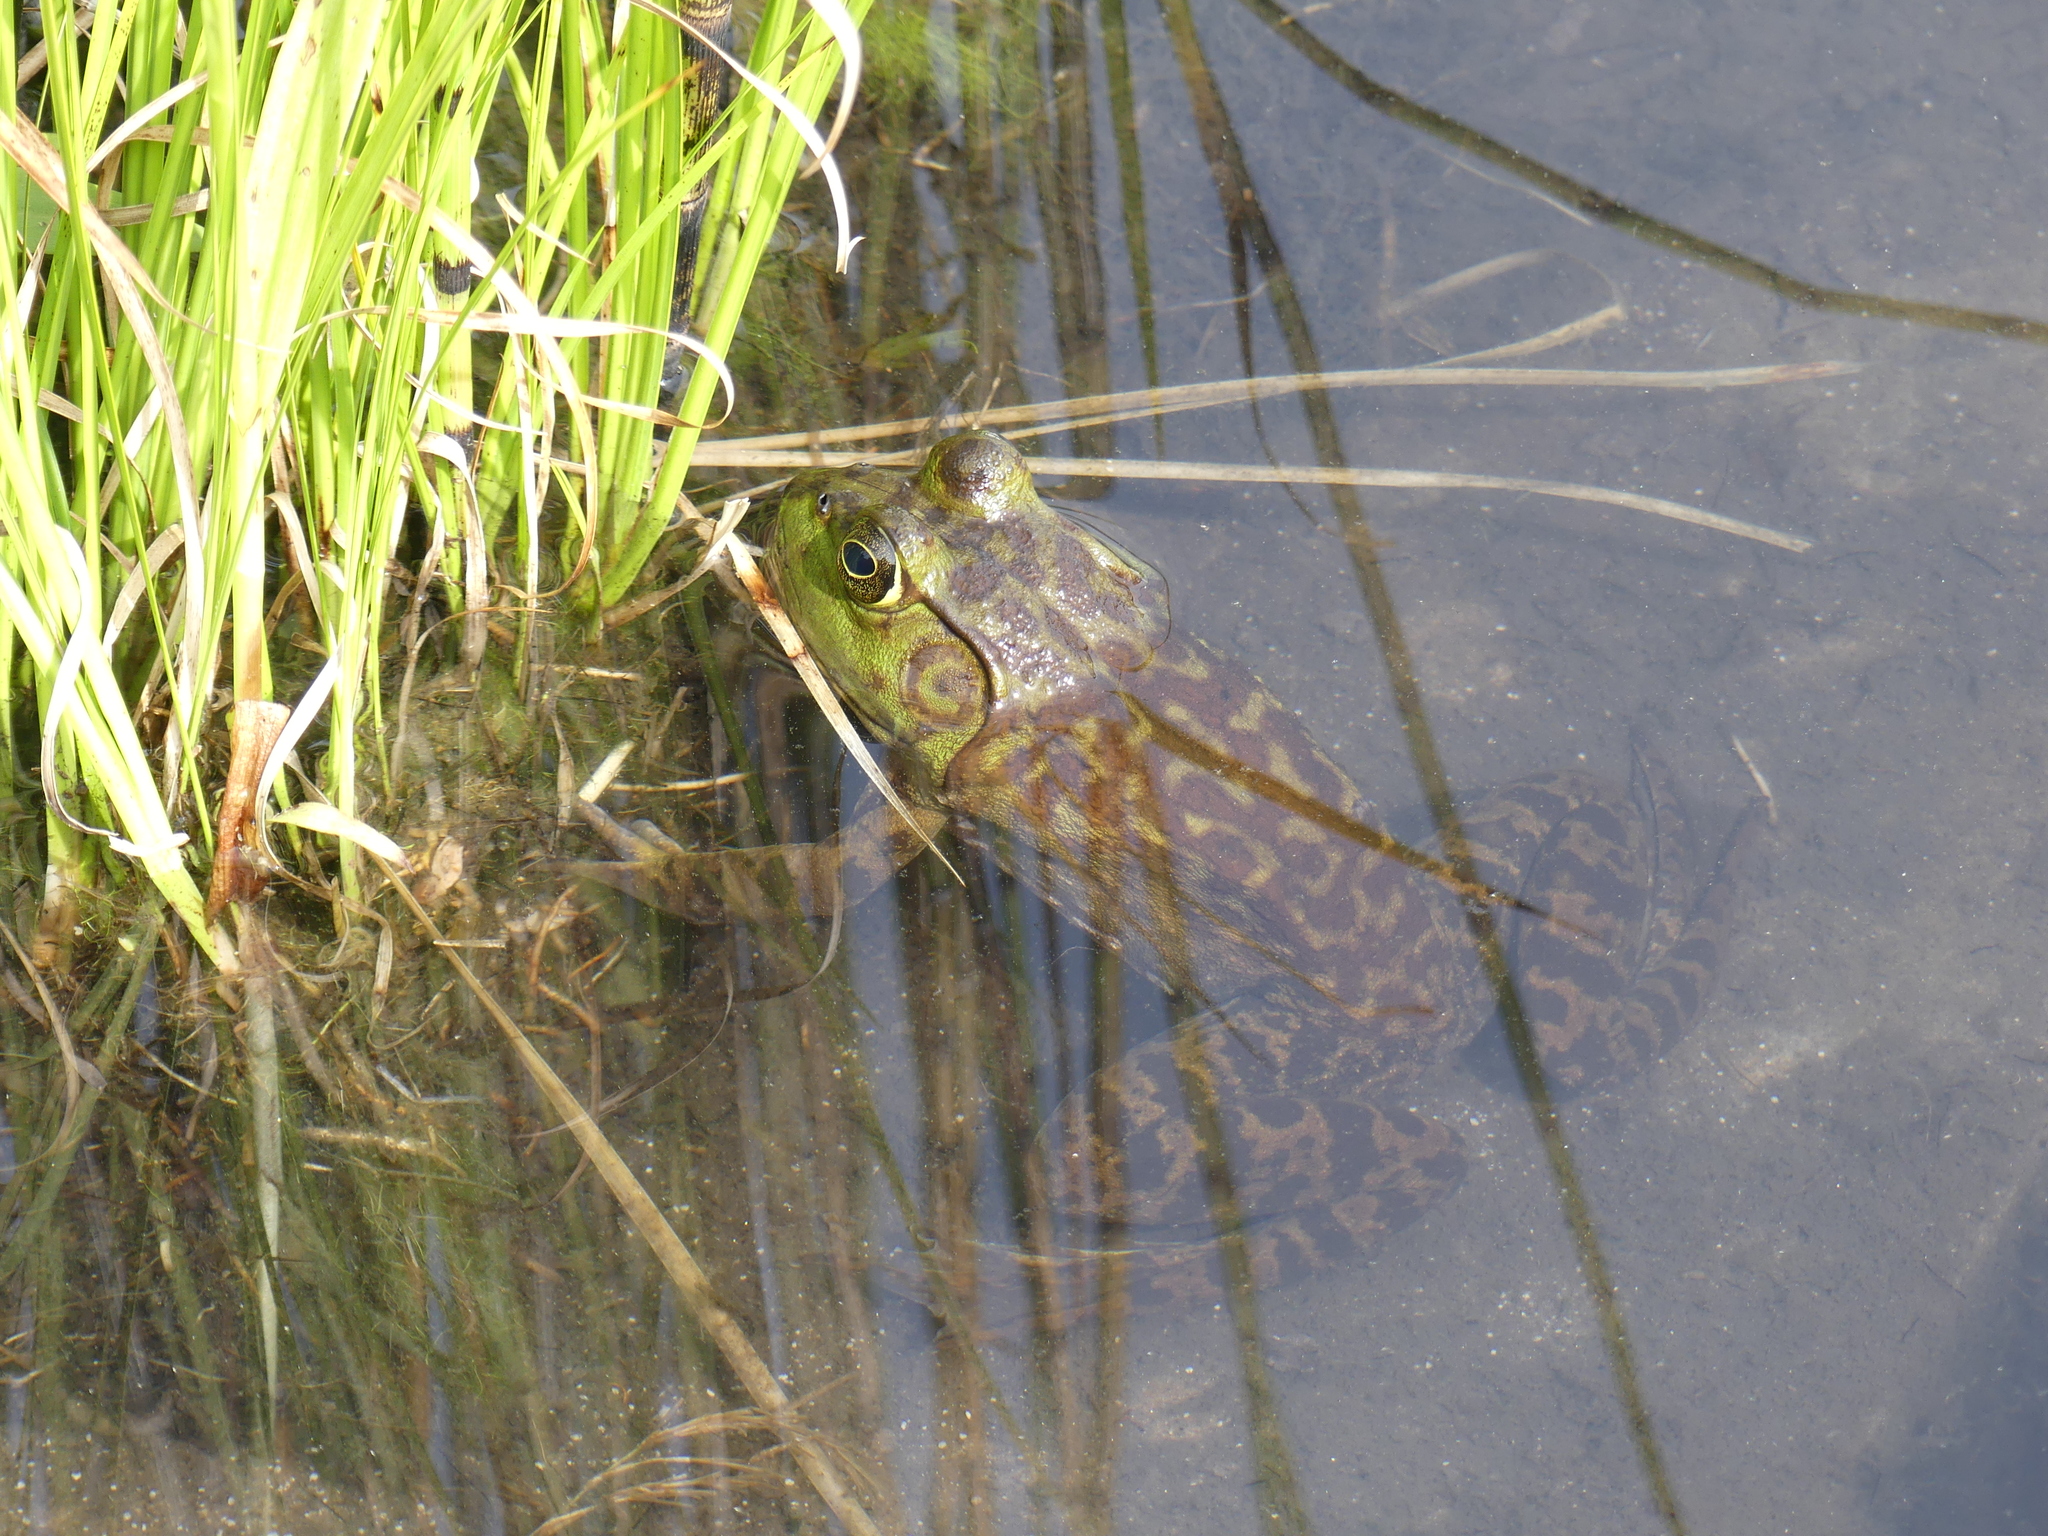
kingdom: Animalia
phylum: Chordata
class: Amphibia
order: Anura
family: Ranidae
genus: Lithobates
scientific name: Lithobates catesbeianus
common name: American bullfrog
